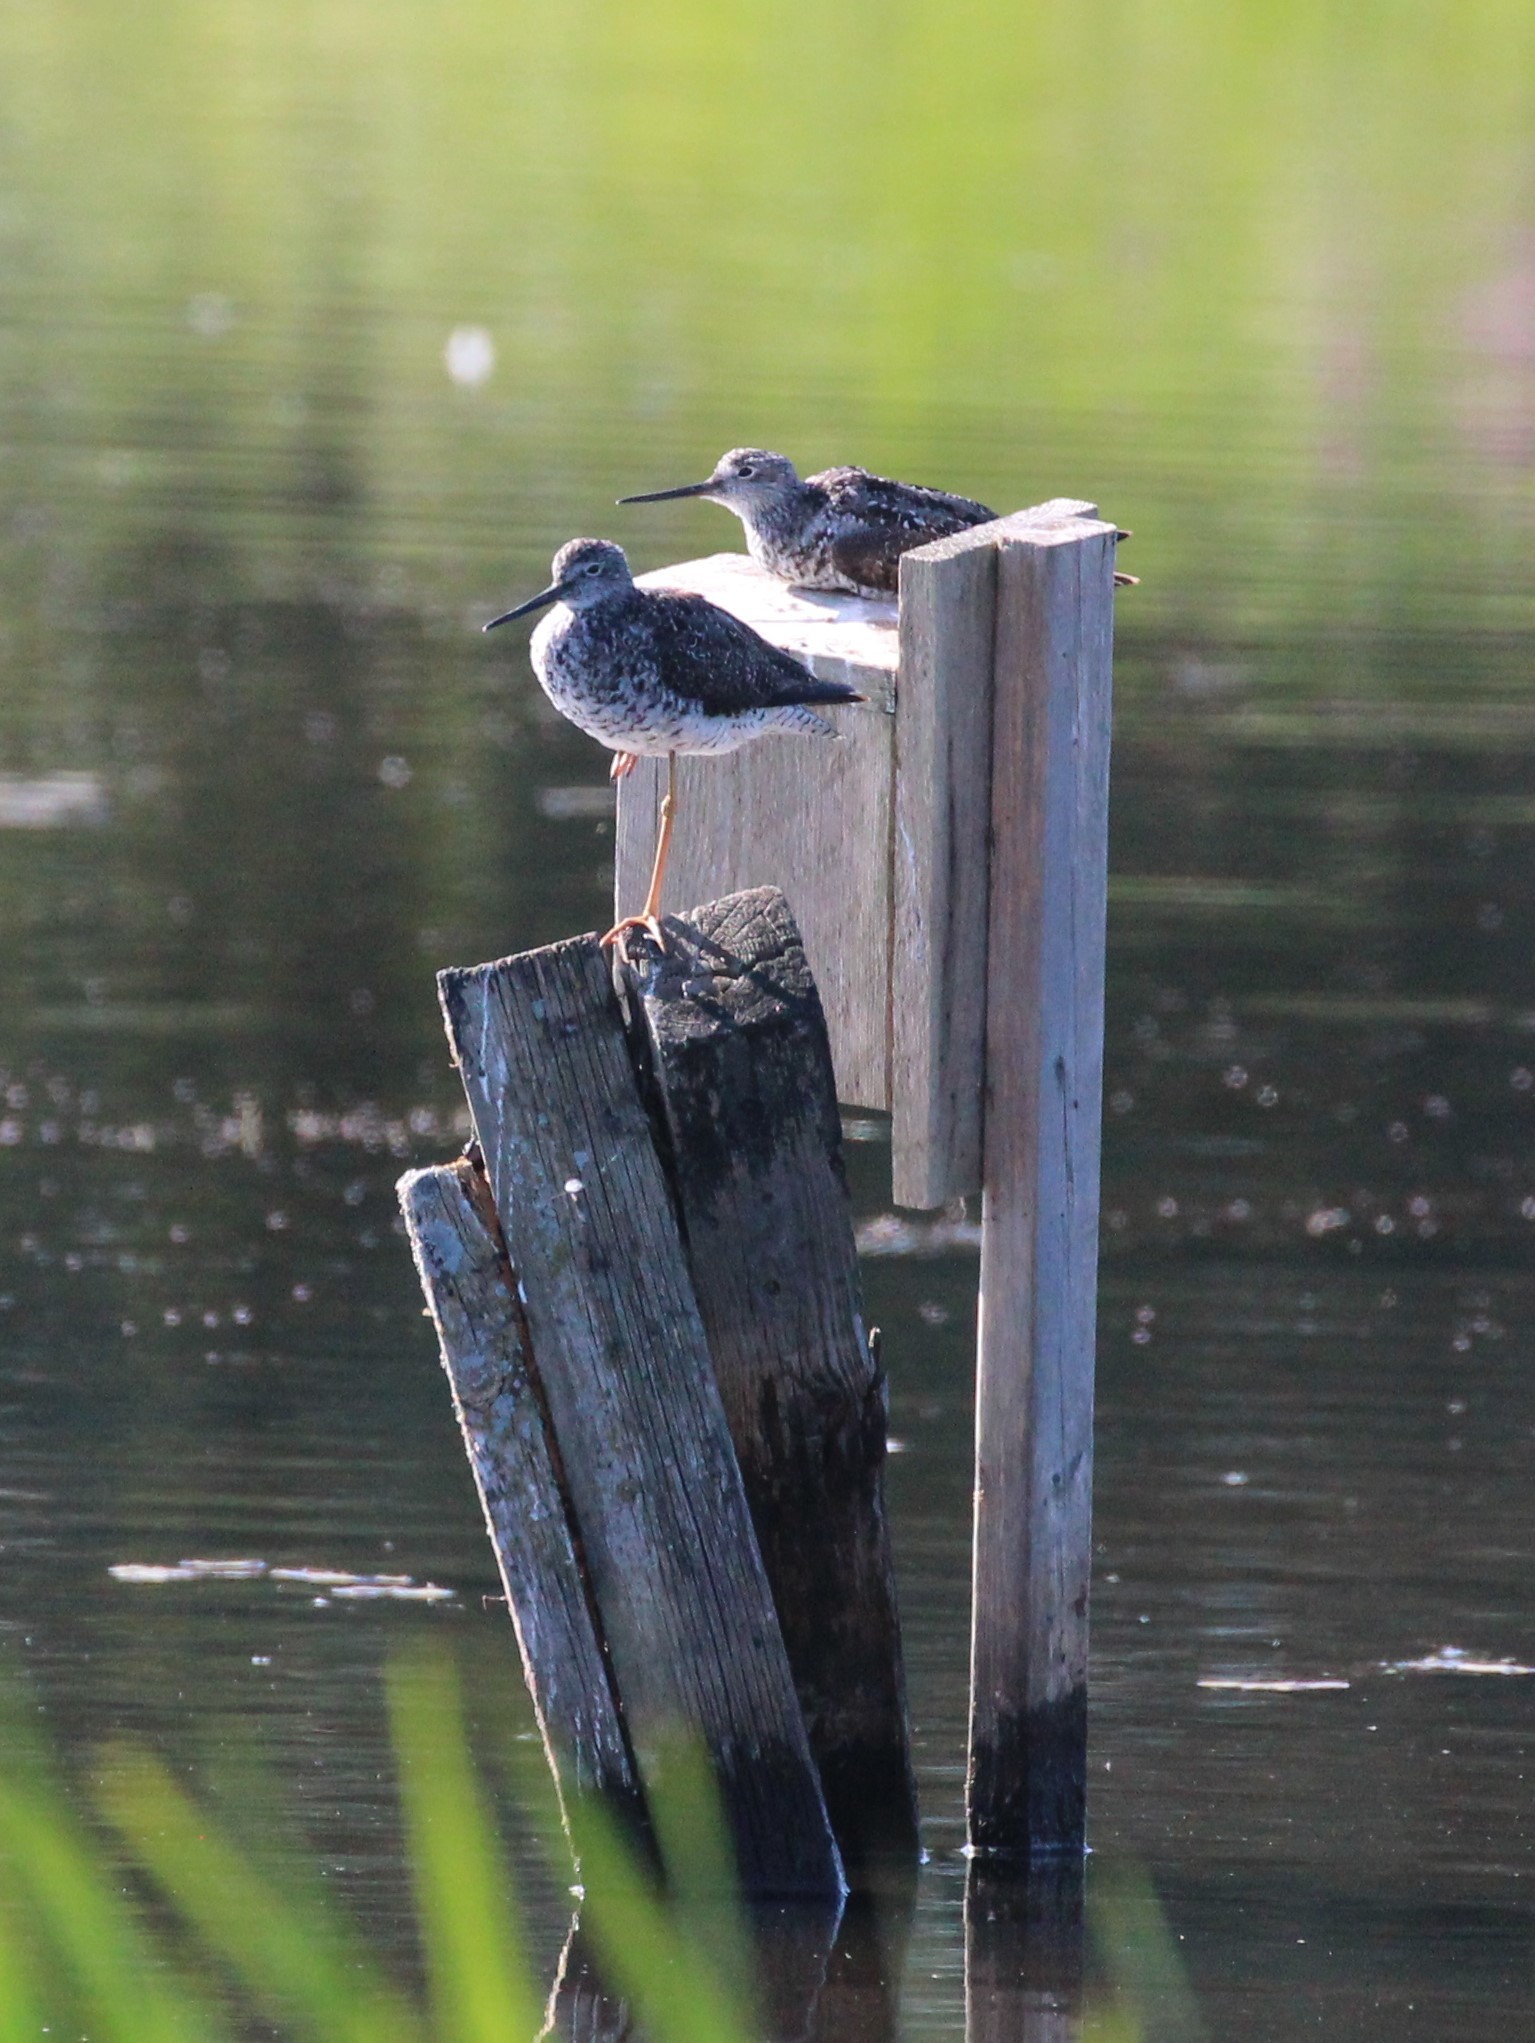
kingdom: Animalia
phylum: Chordata
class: Aves
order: Charadriiformes
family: Scolopacidae
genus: Tringa
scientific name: Tringa melanoleuca
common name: Greater yellowlegs
